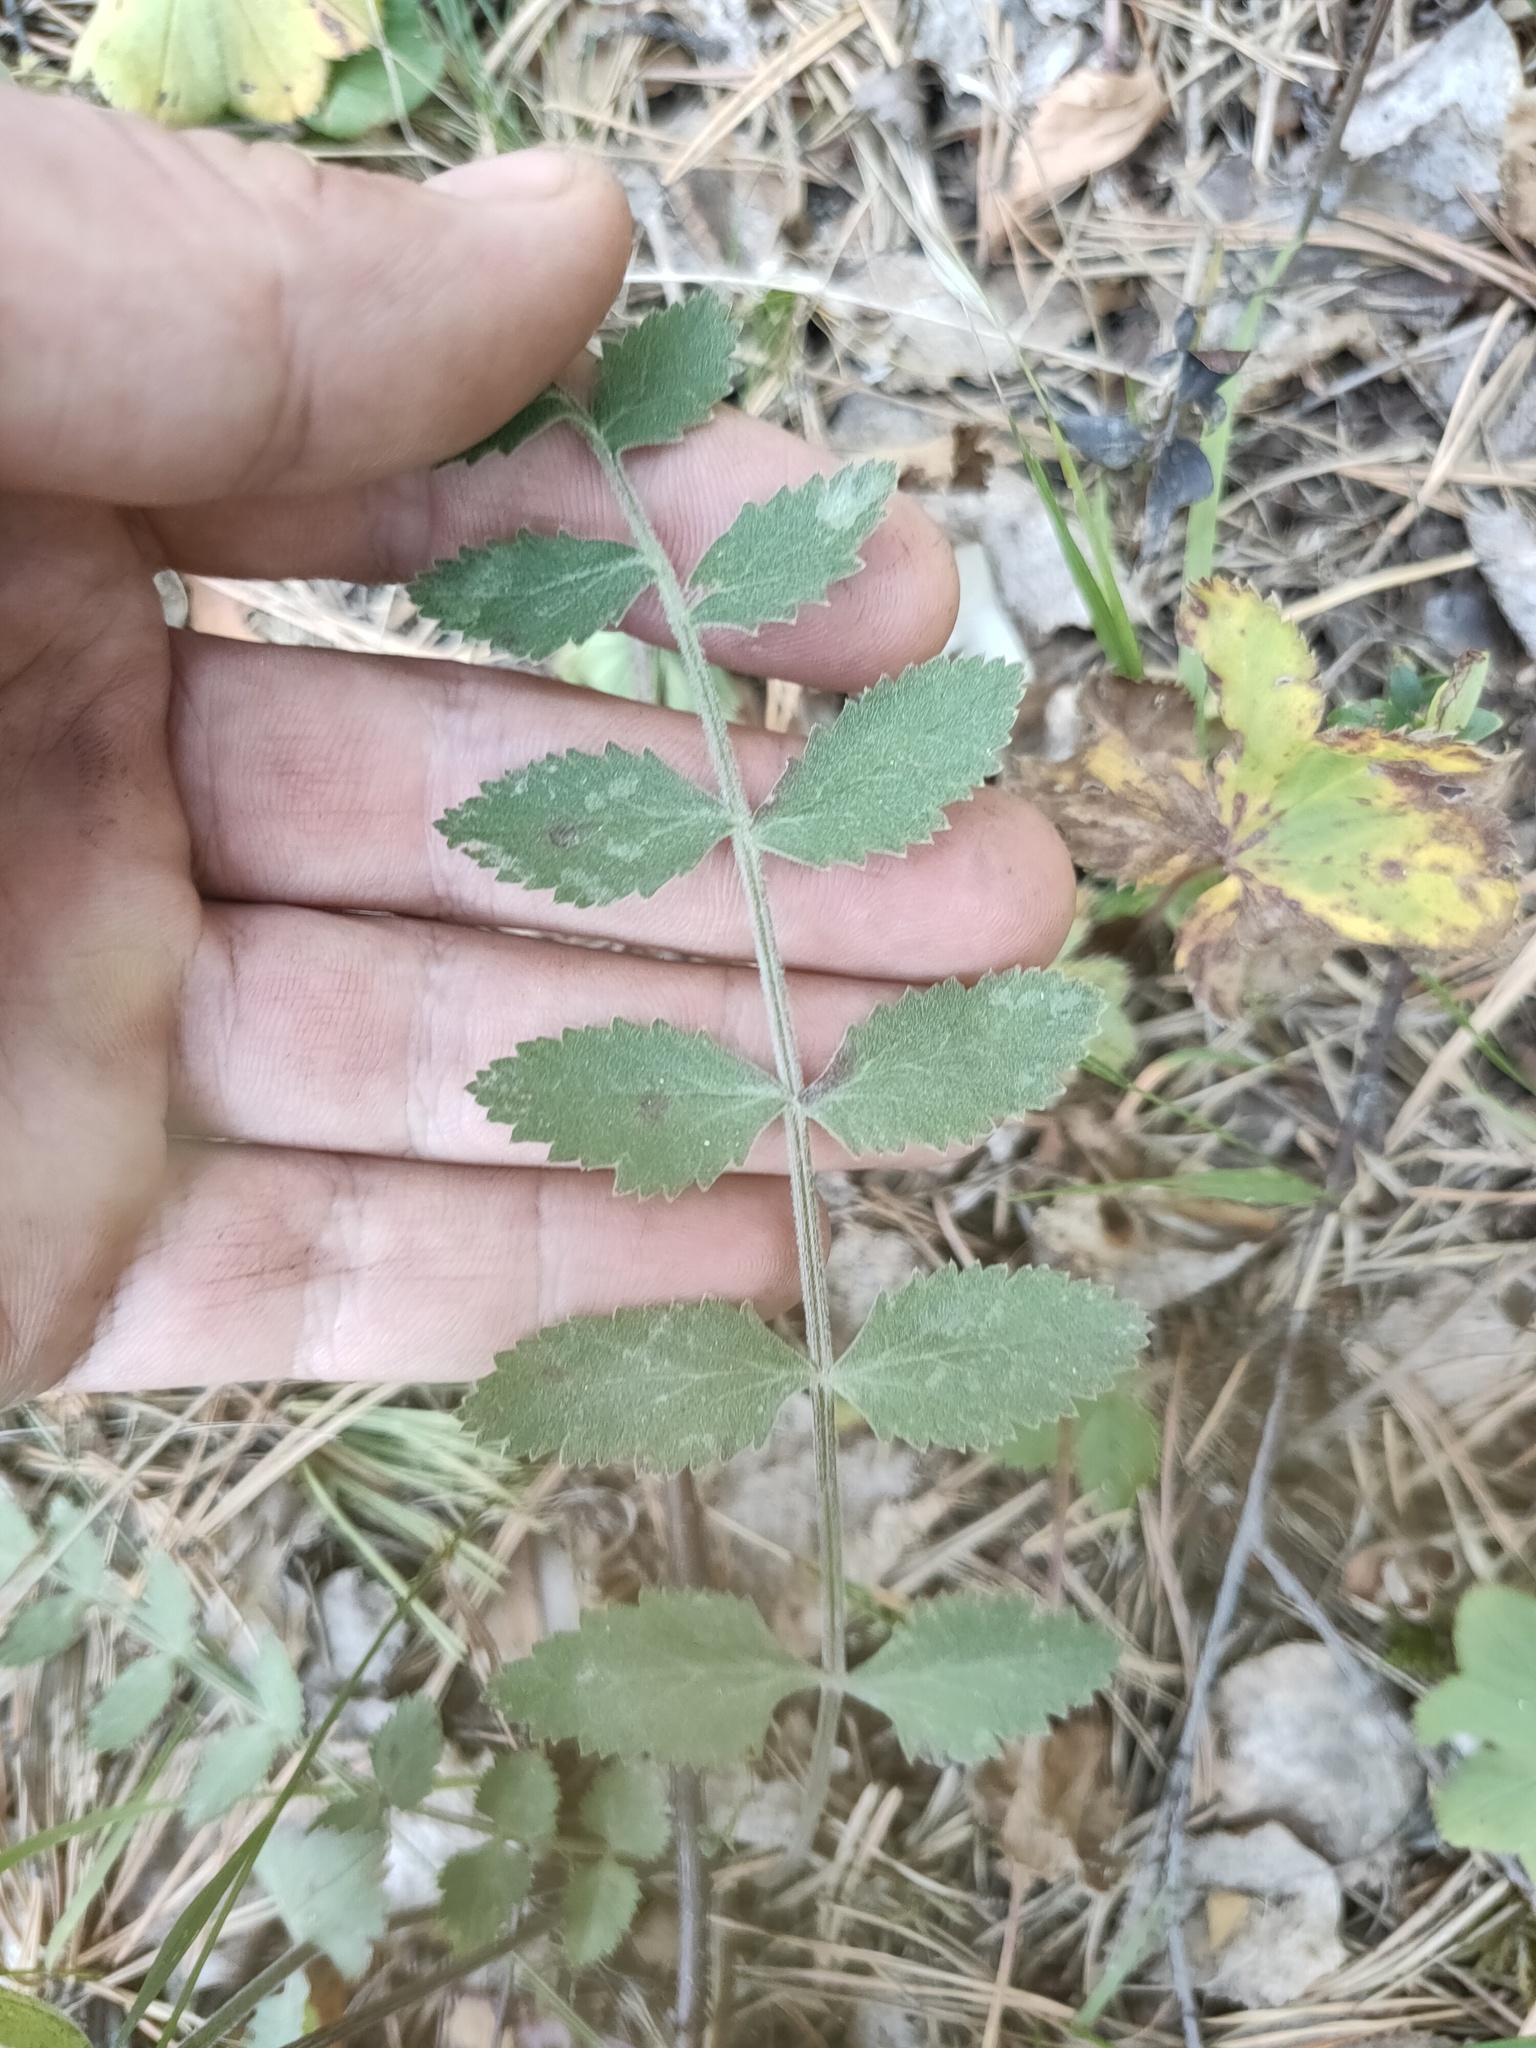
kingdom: Plantae
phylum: Tracheophyta
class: Magnoliopsida
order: Apiales
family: Apiaceae
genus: Pimpinella
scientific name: Pimpinella saxifraga
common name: Burnet-saxifrage
